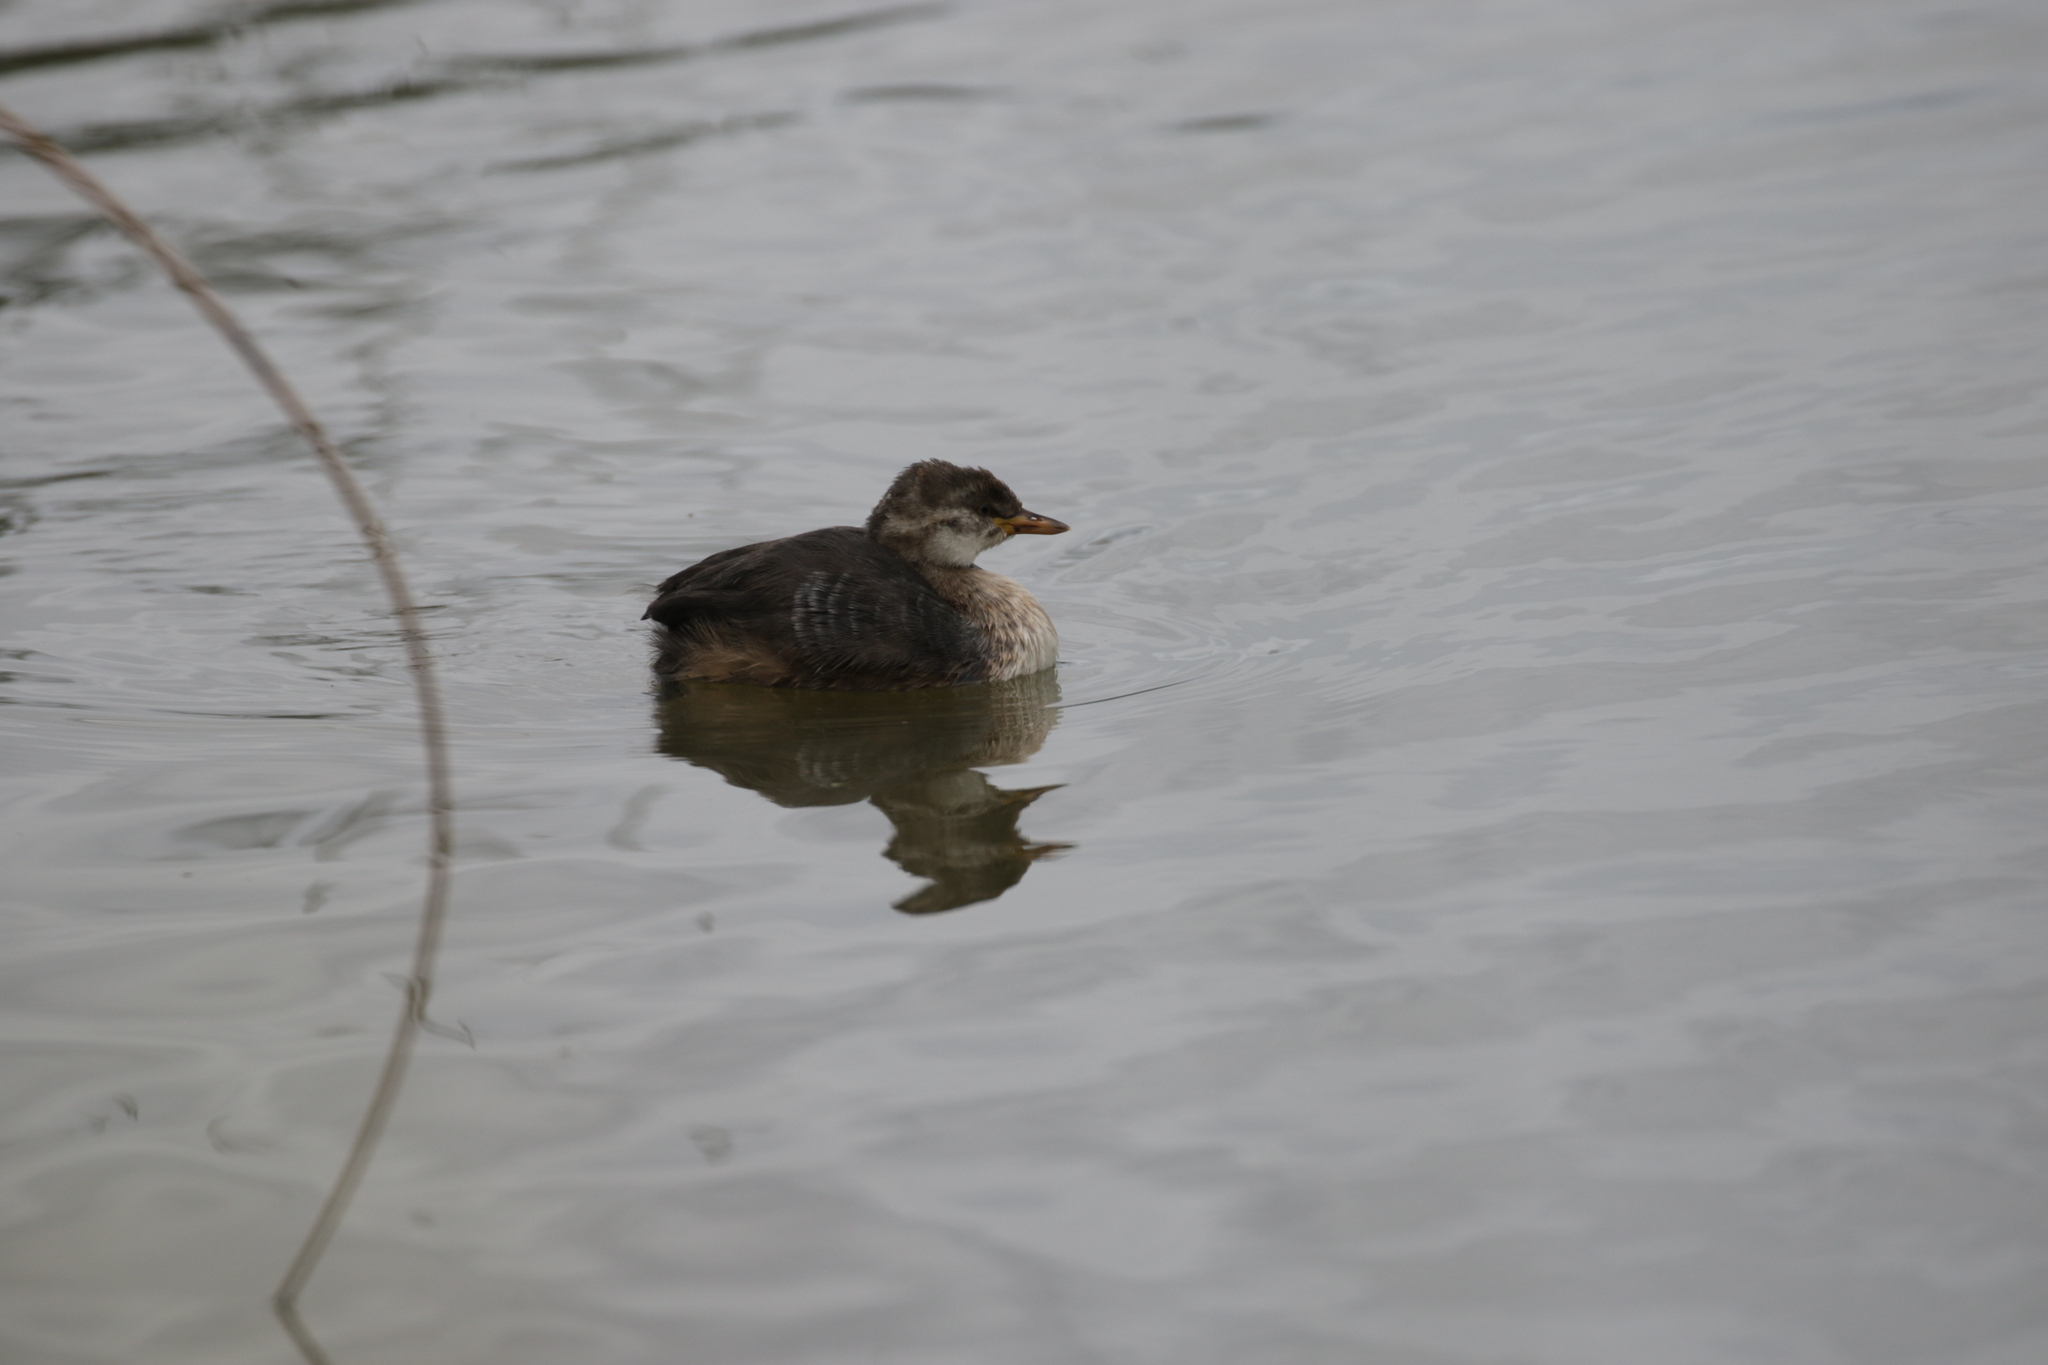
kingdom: Animalia
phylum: Chordata
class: Aves
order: Podicipediformes
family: Podicipedidae
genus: Tachybaptus
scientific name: Tachybaptus novaehollandiae
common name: Australasian grebe
